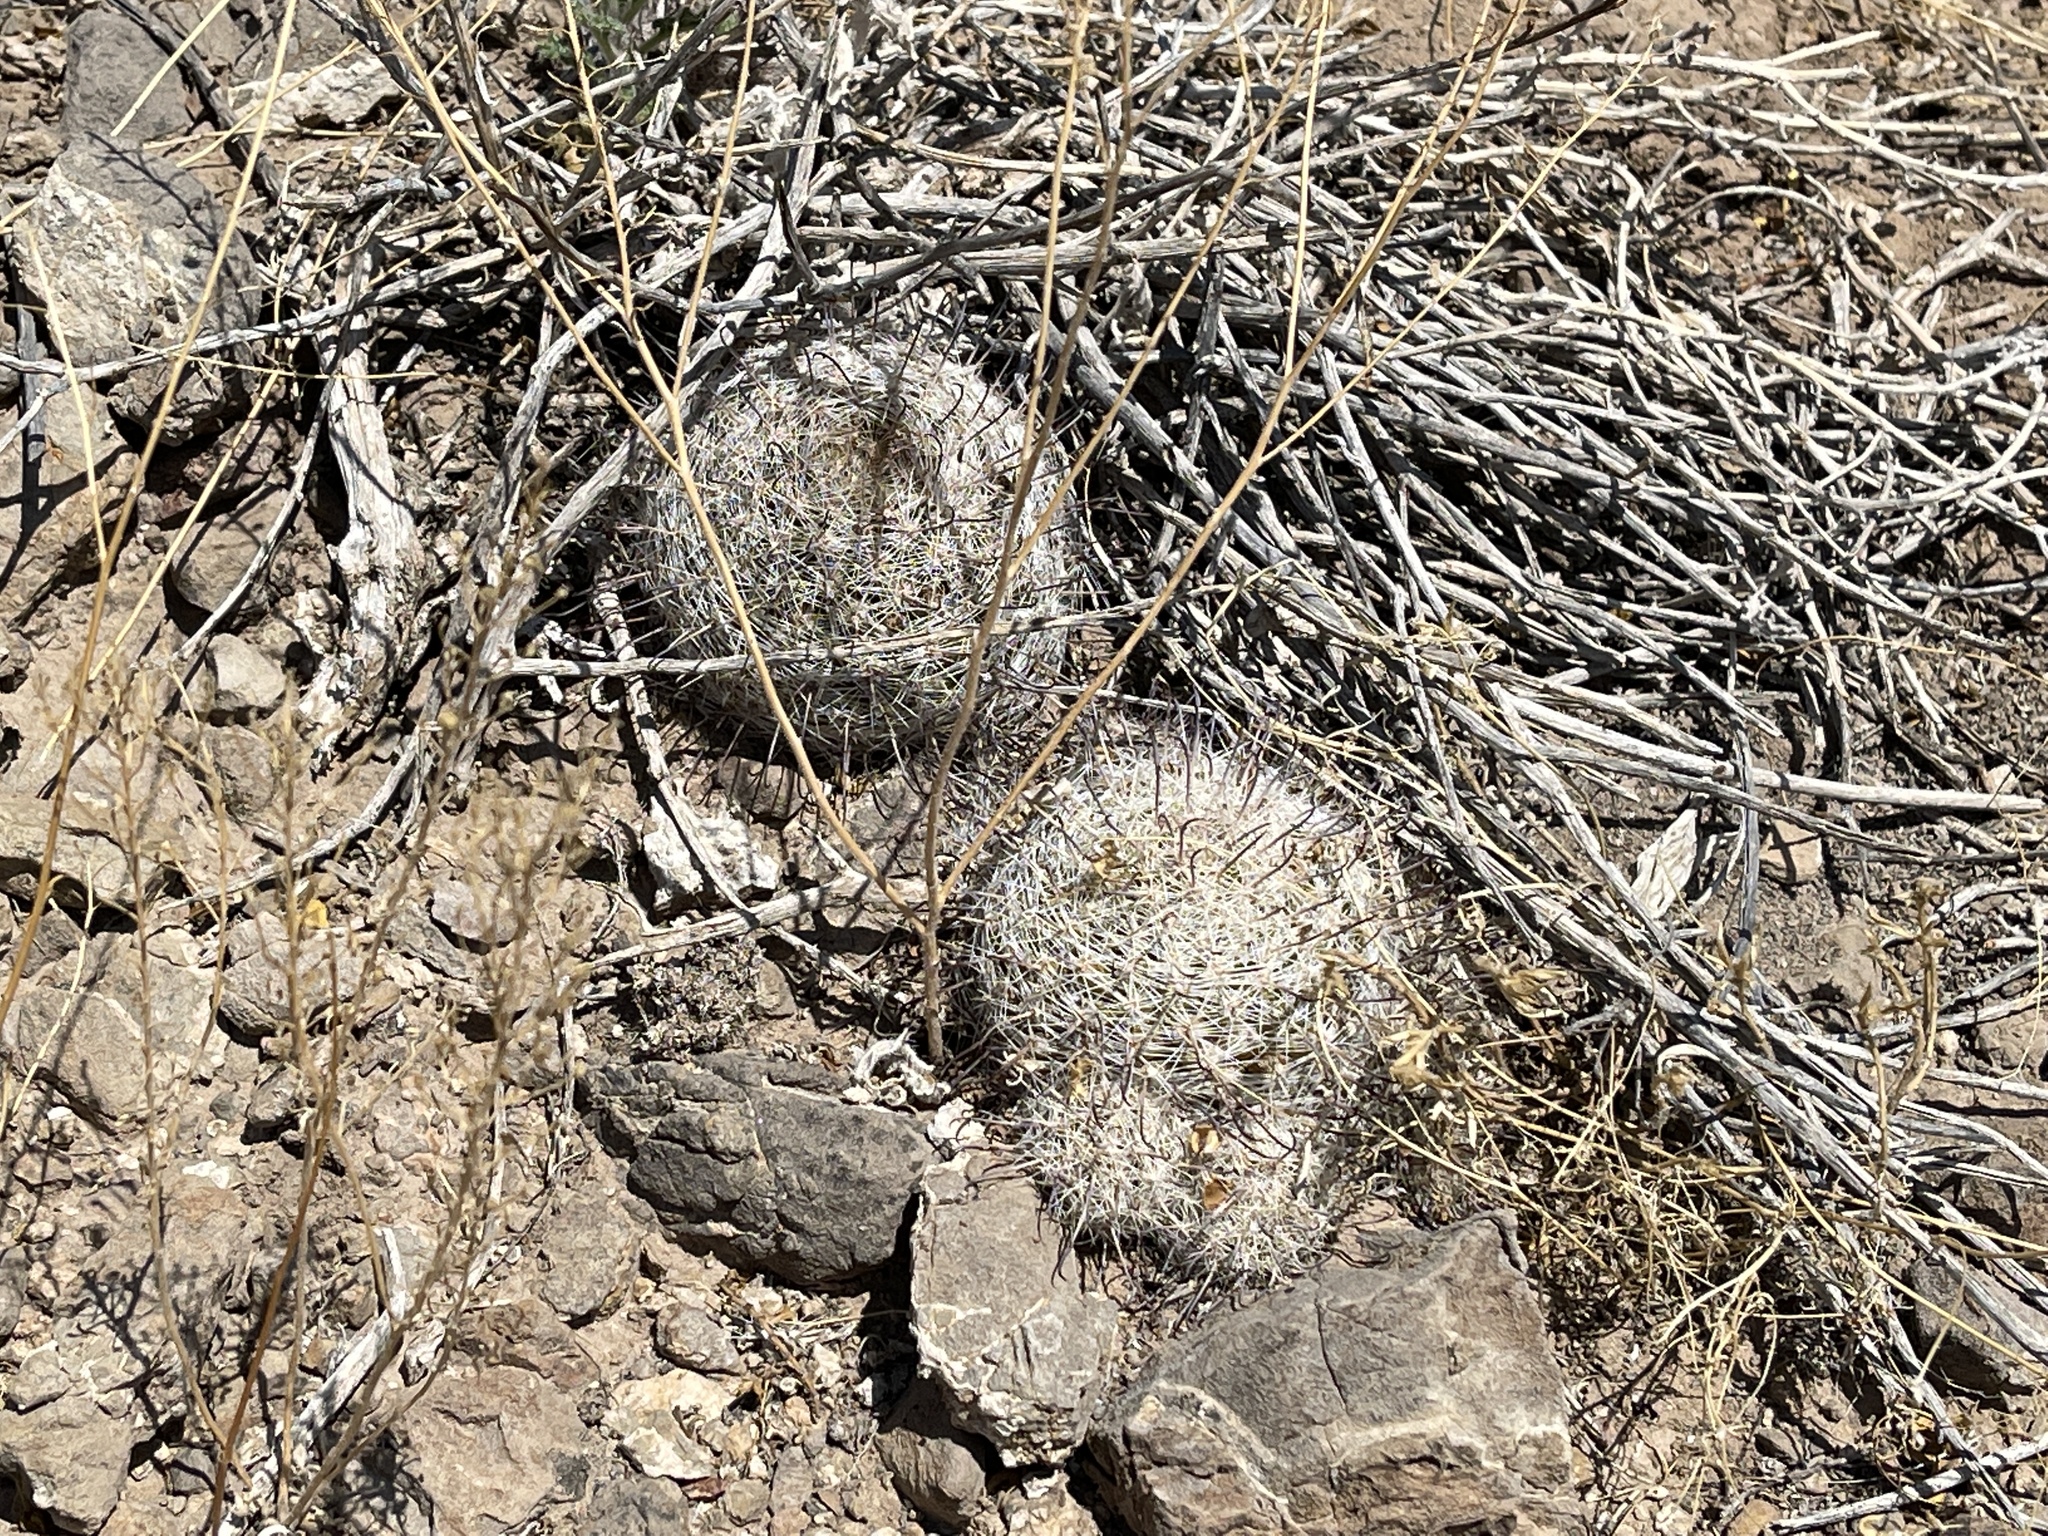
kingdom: Plantae
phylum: Tracheophyta
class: Magnoliopsida
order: Caryophyllales
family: Cactaceae
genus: Cochemiea
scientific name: Cochemiea grahamii
